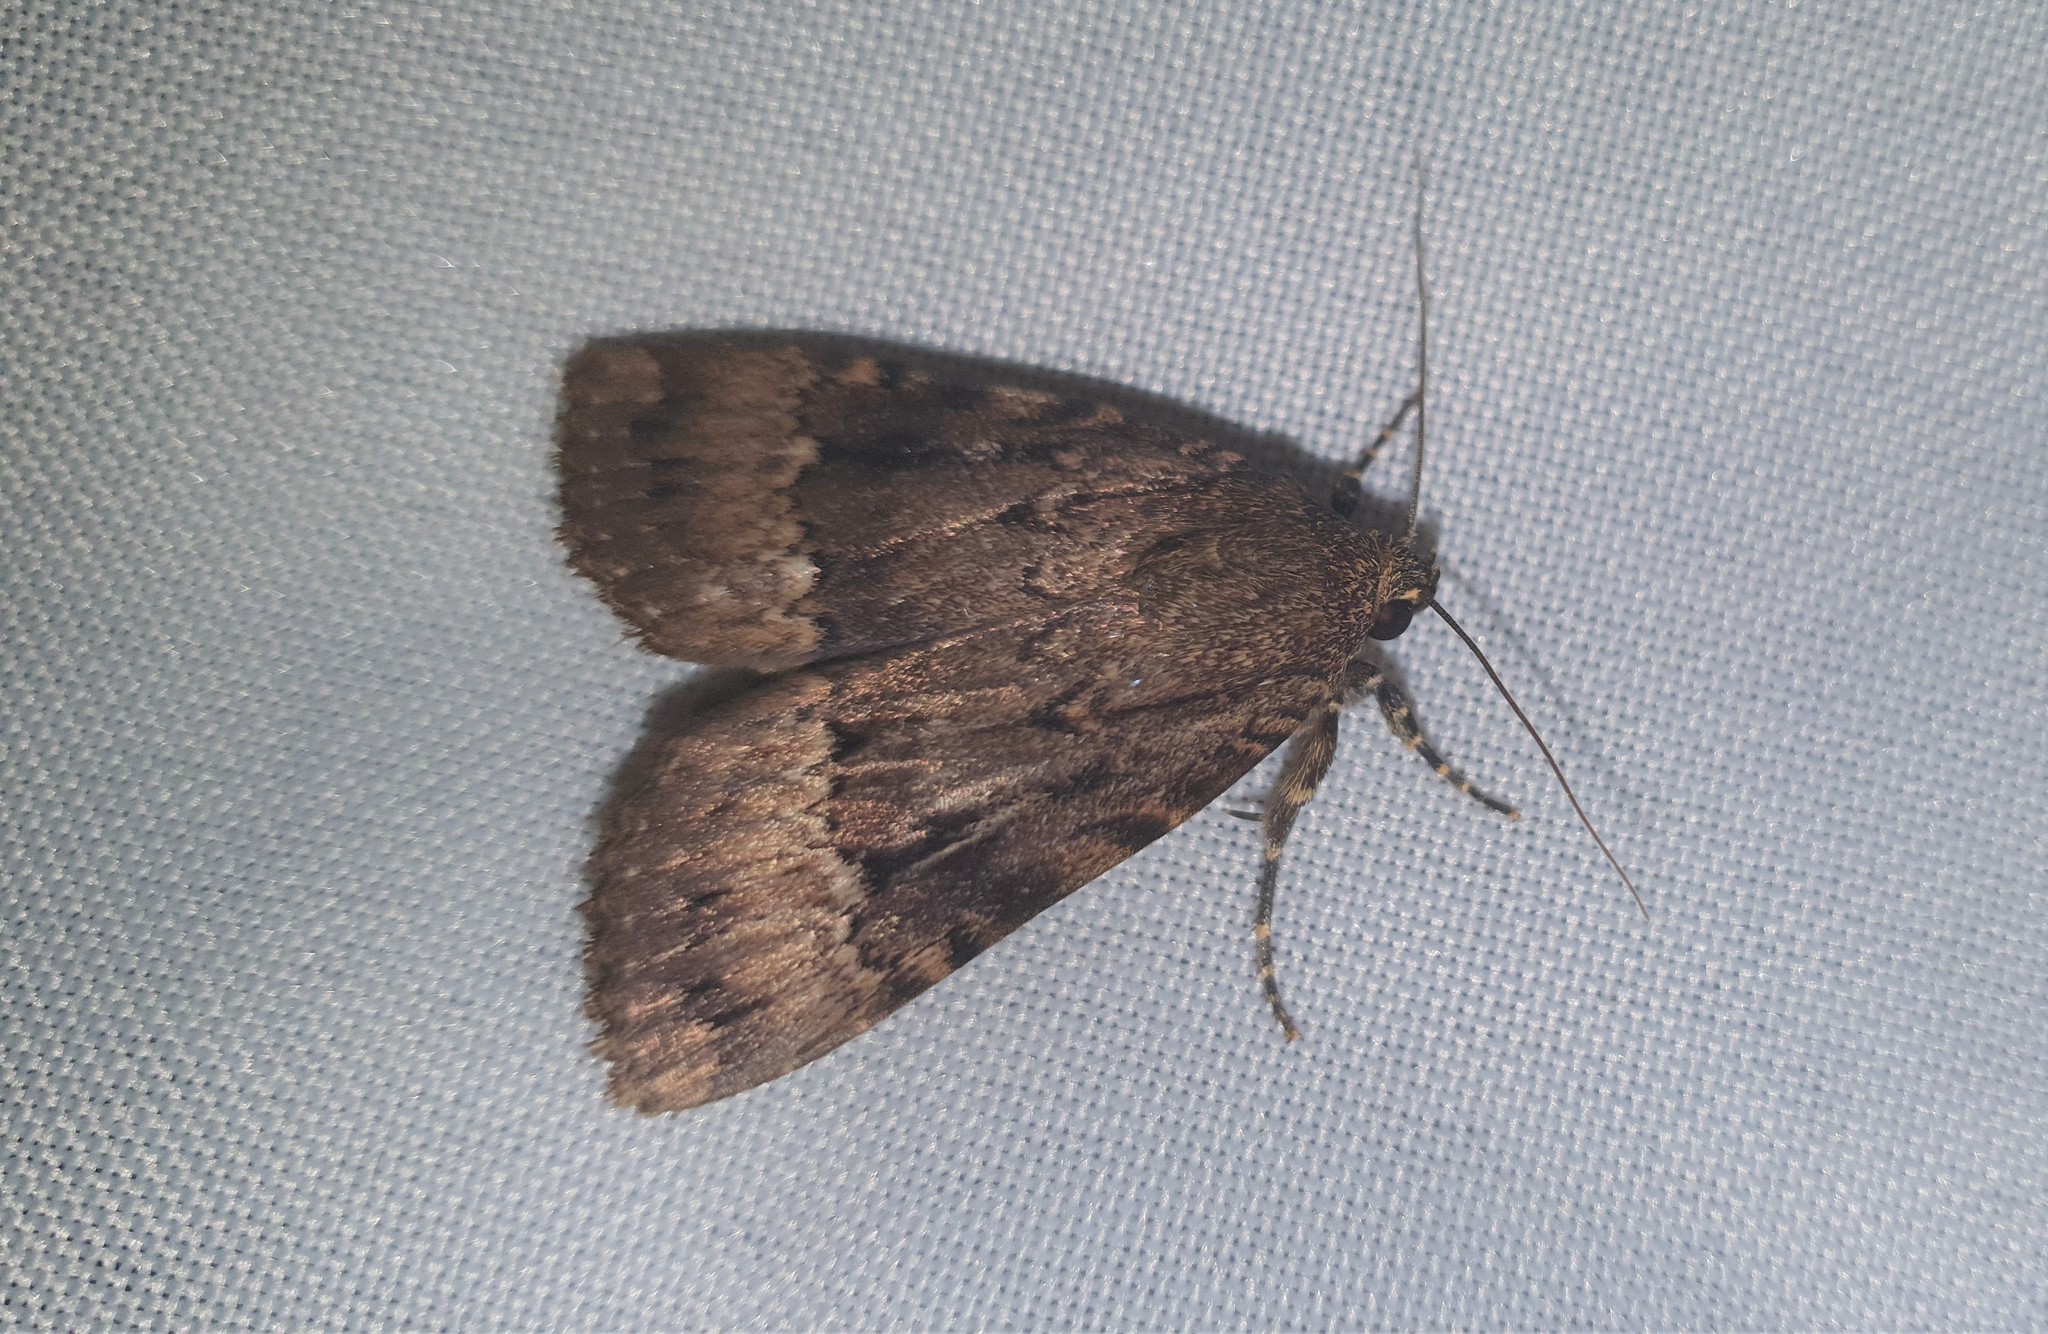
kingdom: Animalia
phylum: Arthropoda
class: Insecta
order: Lepidoptera
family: Noctuidae
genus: Amphipyra
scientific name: Amphipyra pyramidea
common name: Copper underwing
